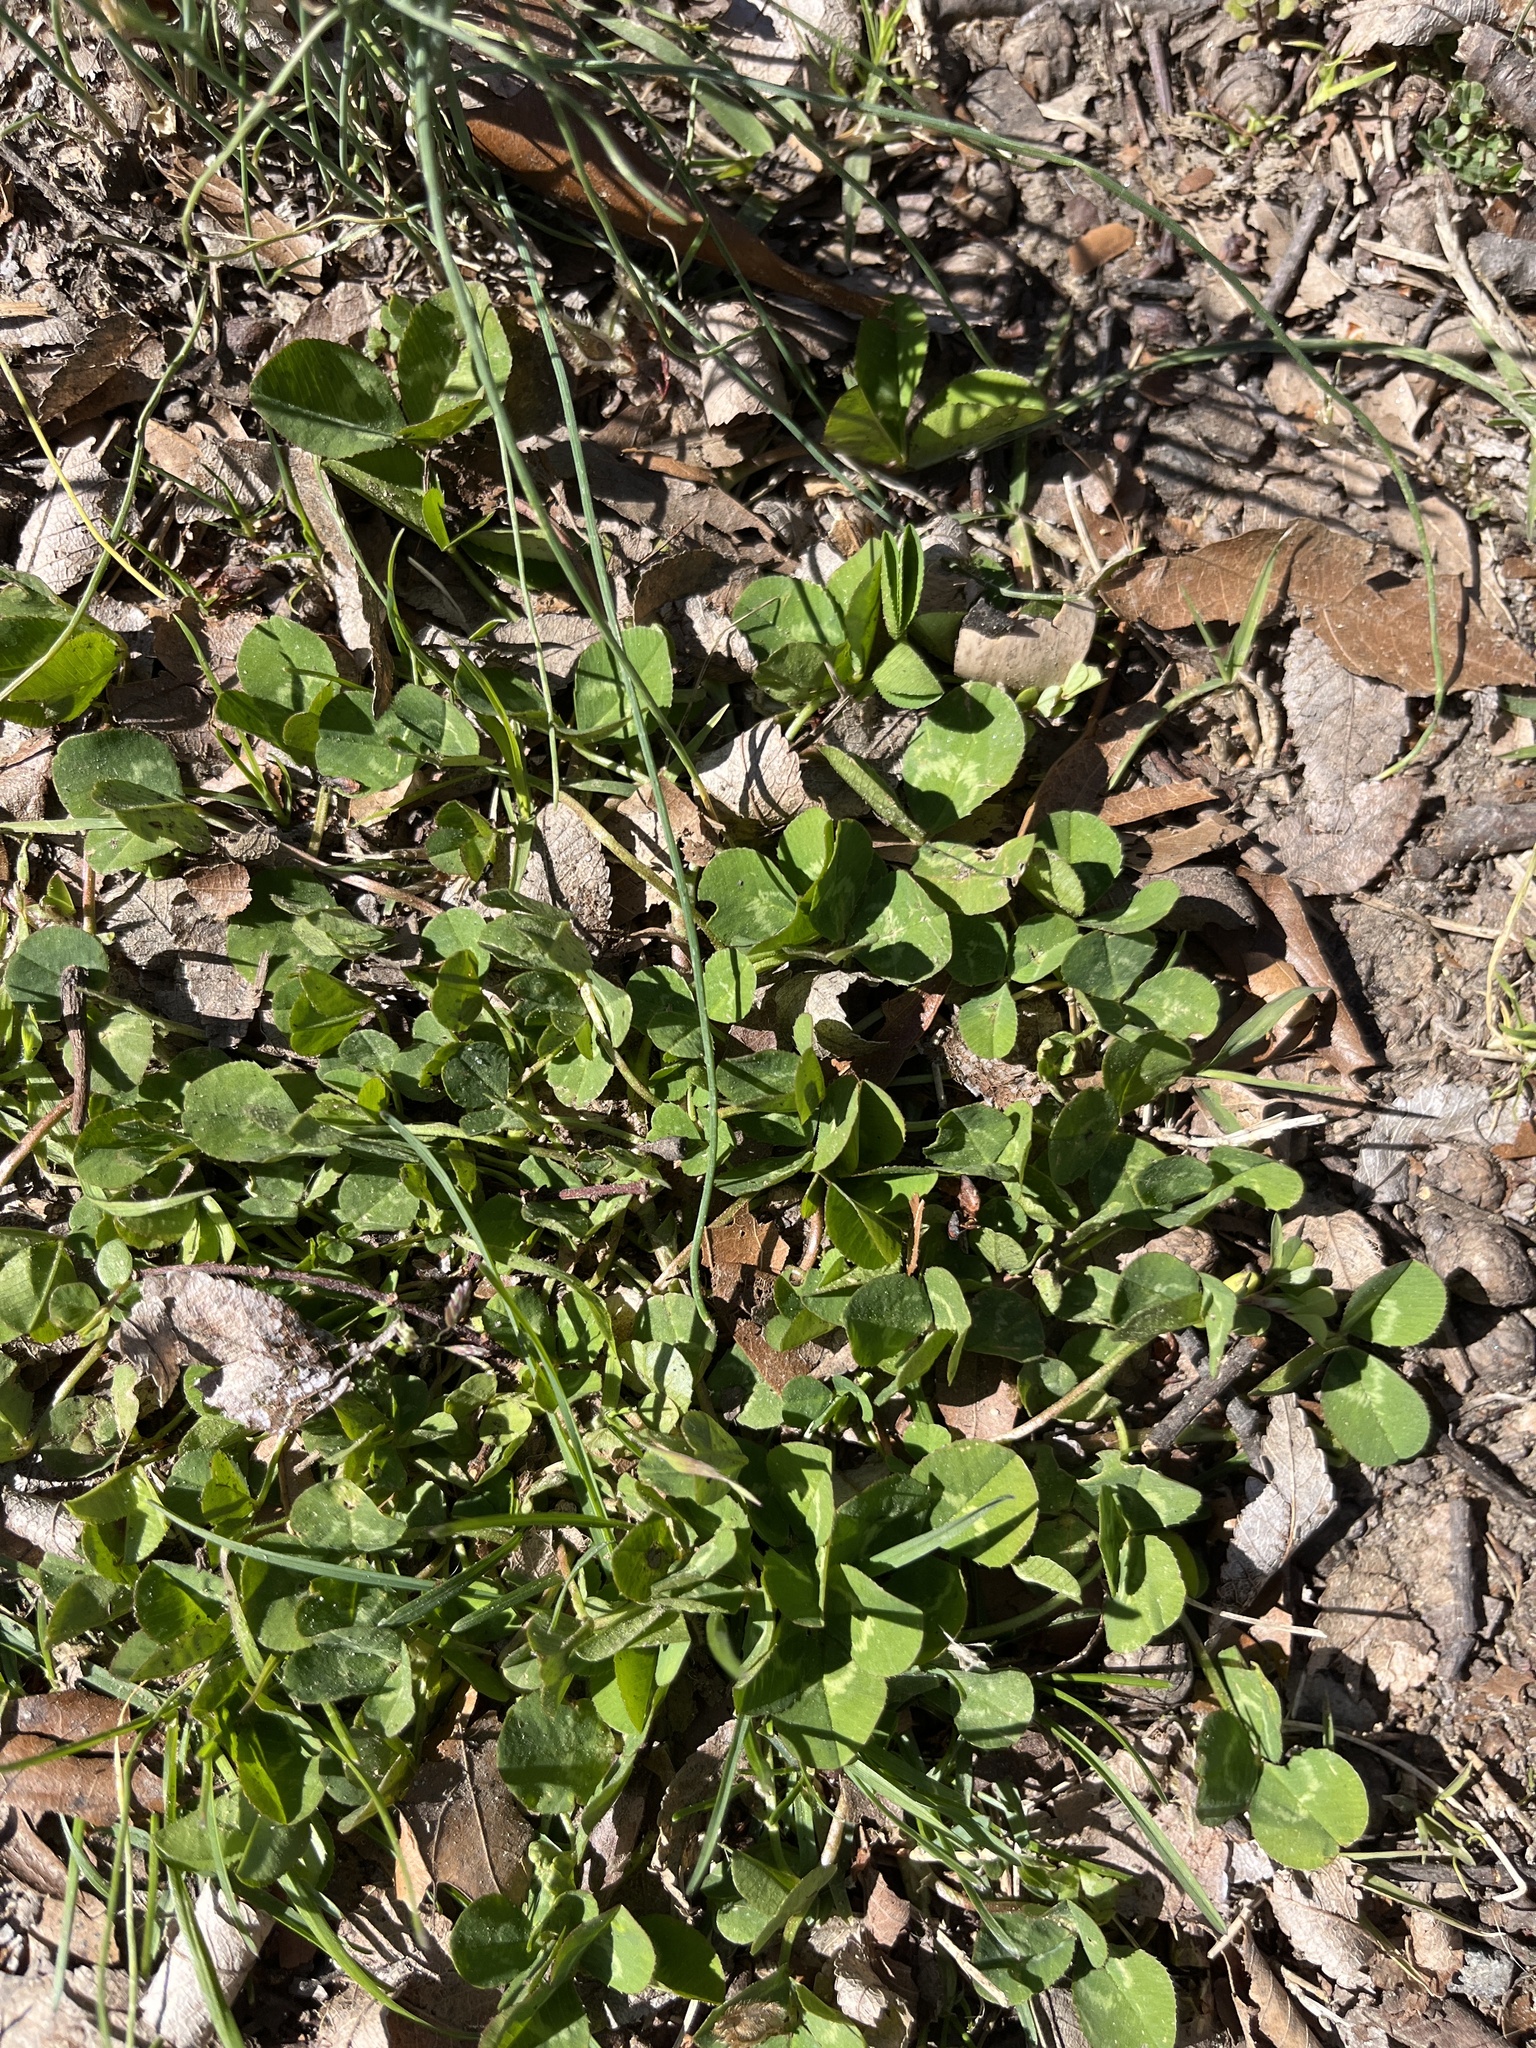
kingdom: Plantae
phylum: Tracheophyta
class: Magnoliopsida
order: Fabales
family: Fabaceae
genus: Trifolium
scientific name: Trifolium repens
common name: White clover
